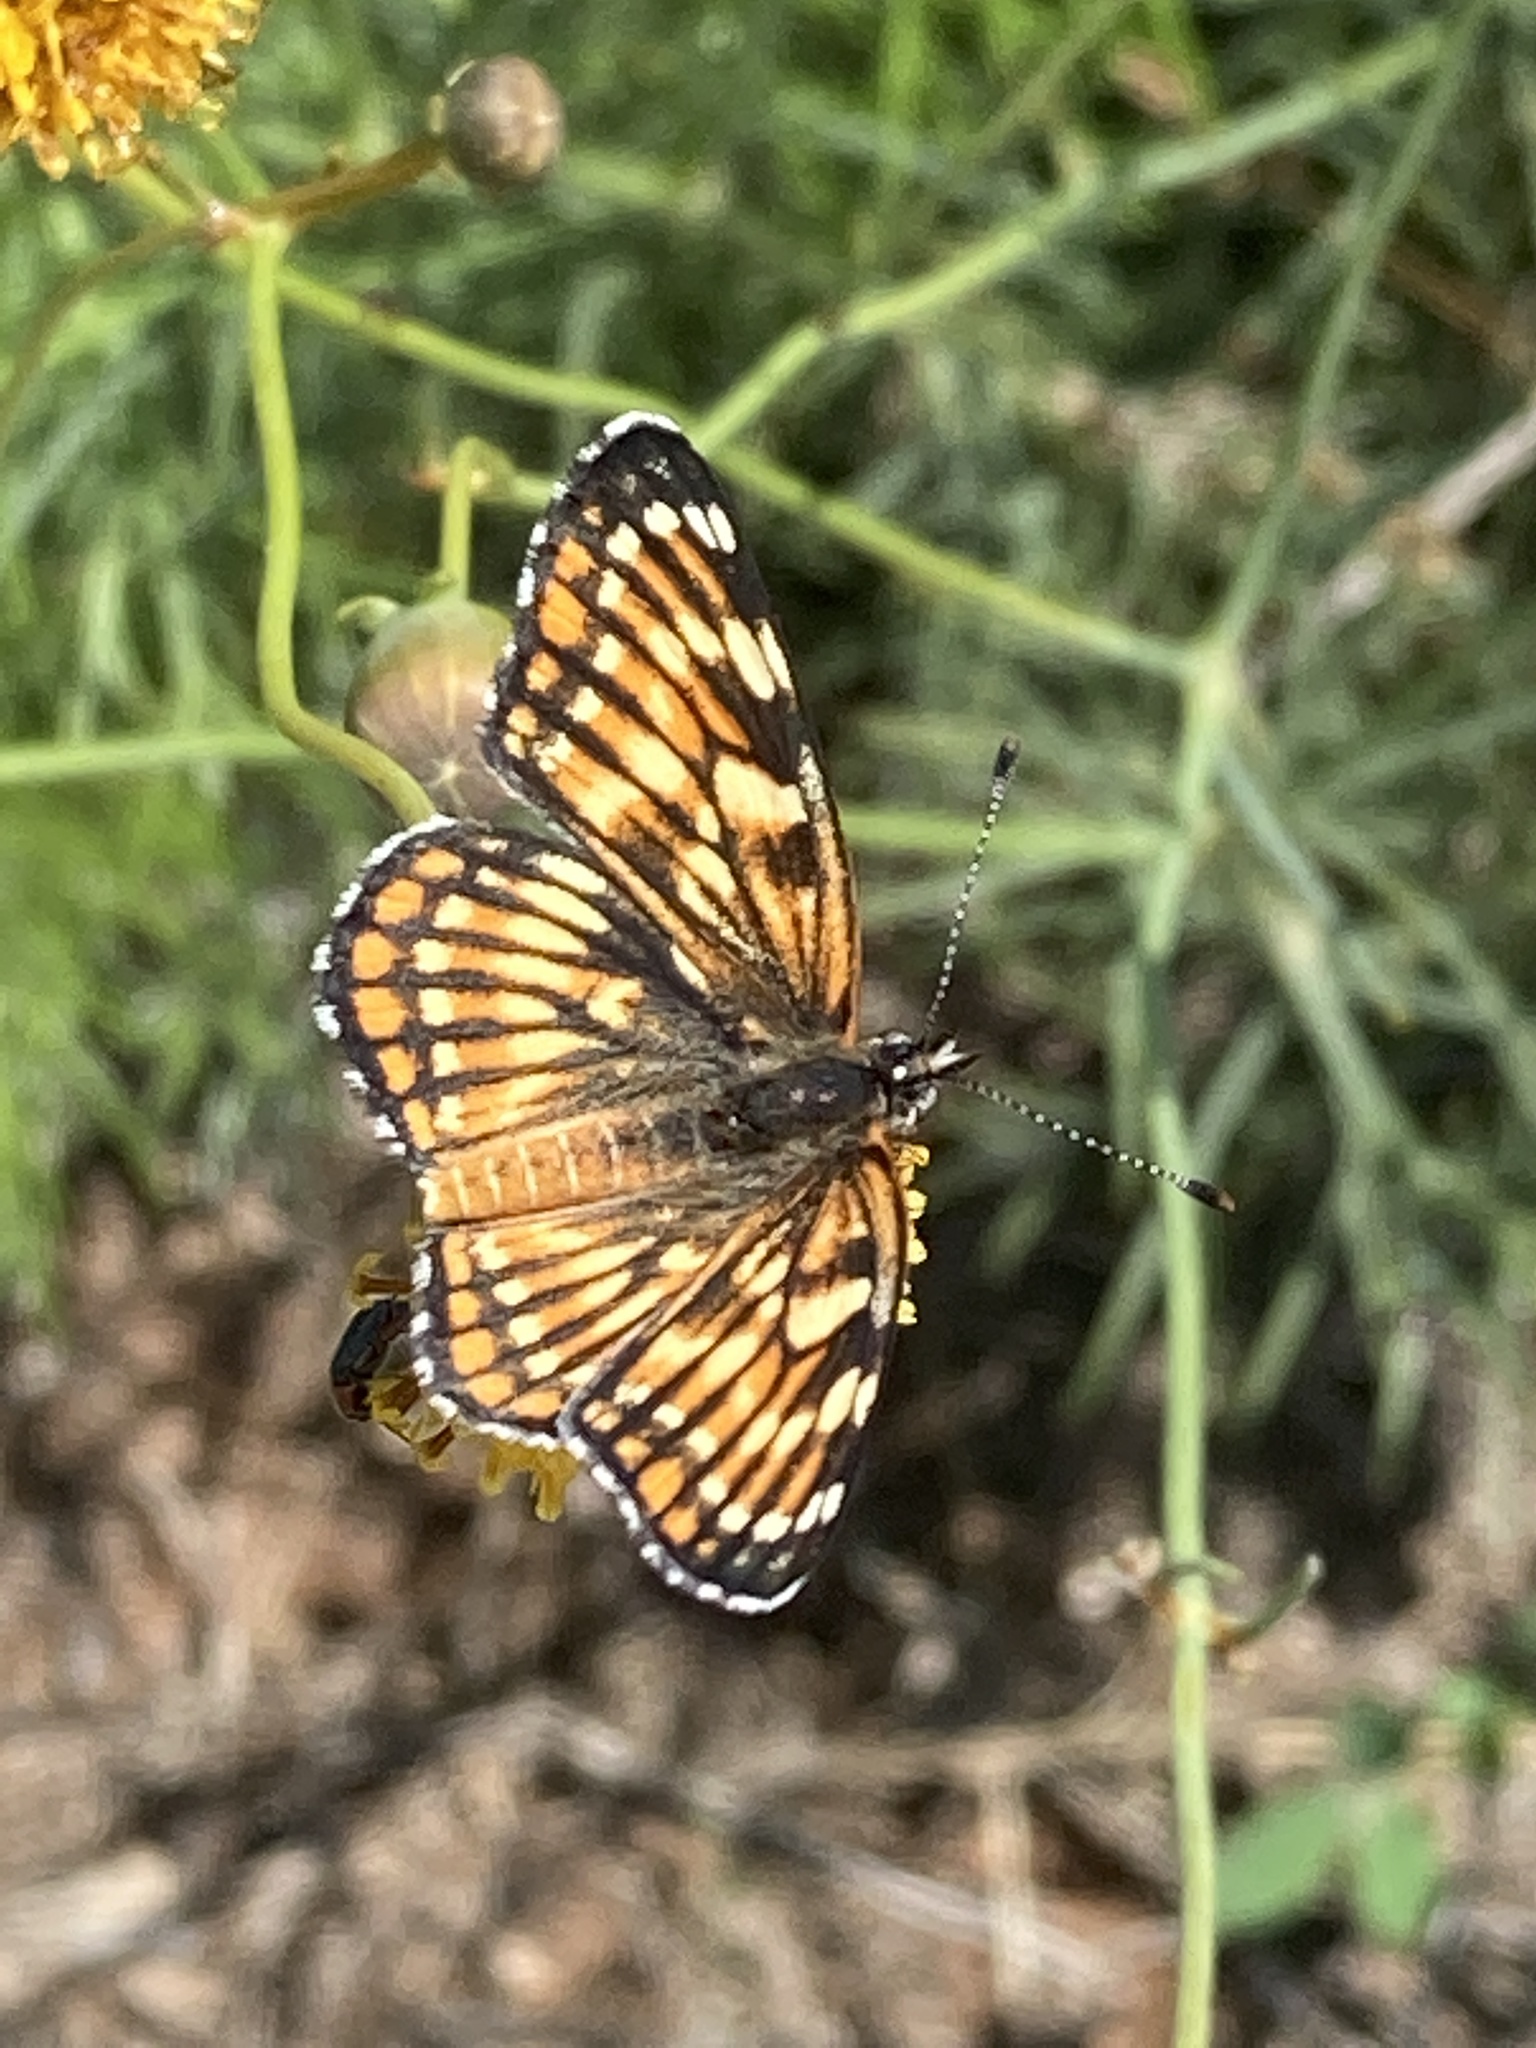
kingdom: Animalia
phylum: Arthropoda
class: Insecta
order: Lepidoptera
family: Nymphalidae
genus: Thessalia
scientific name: Thessalia leanira
